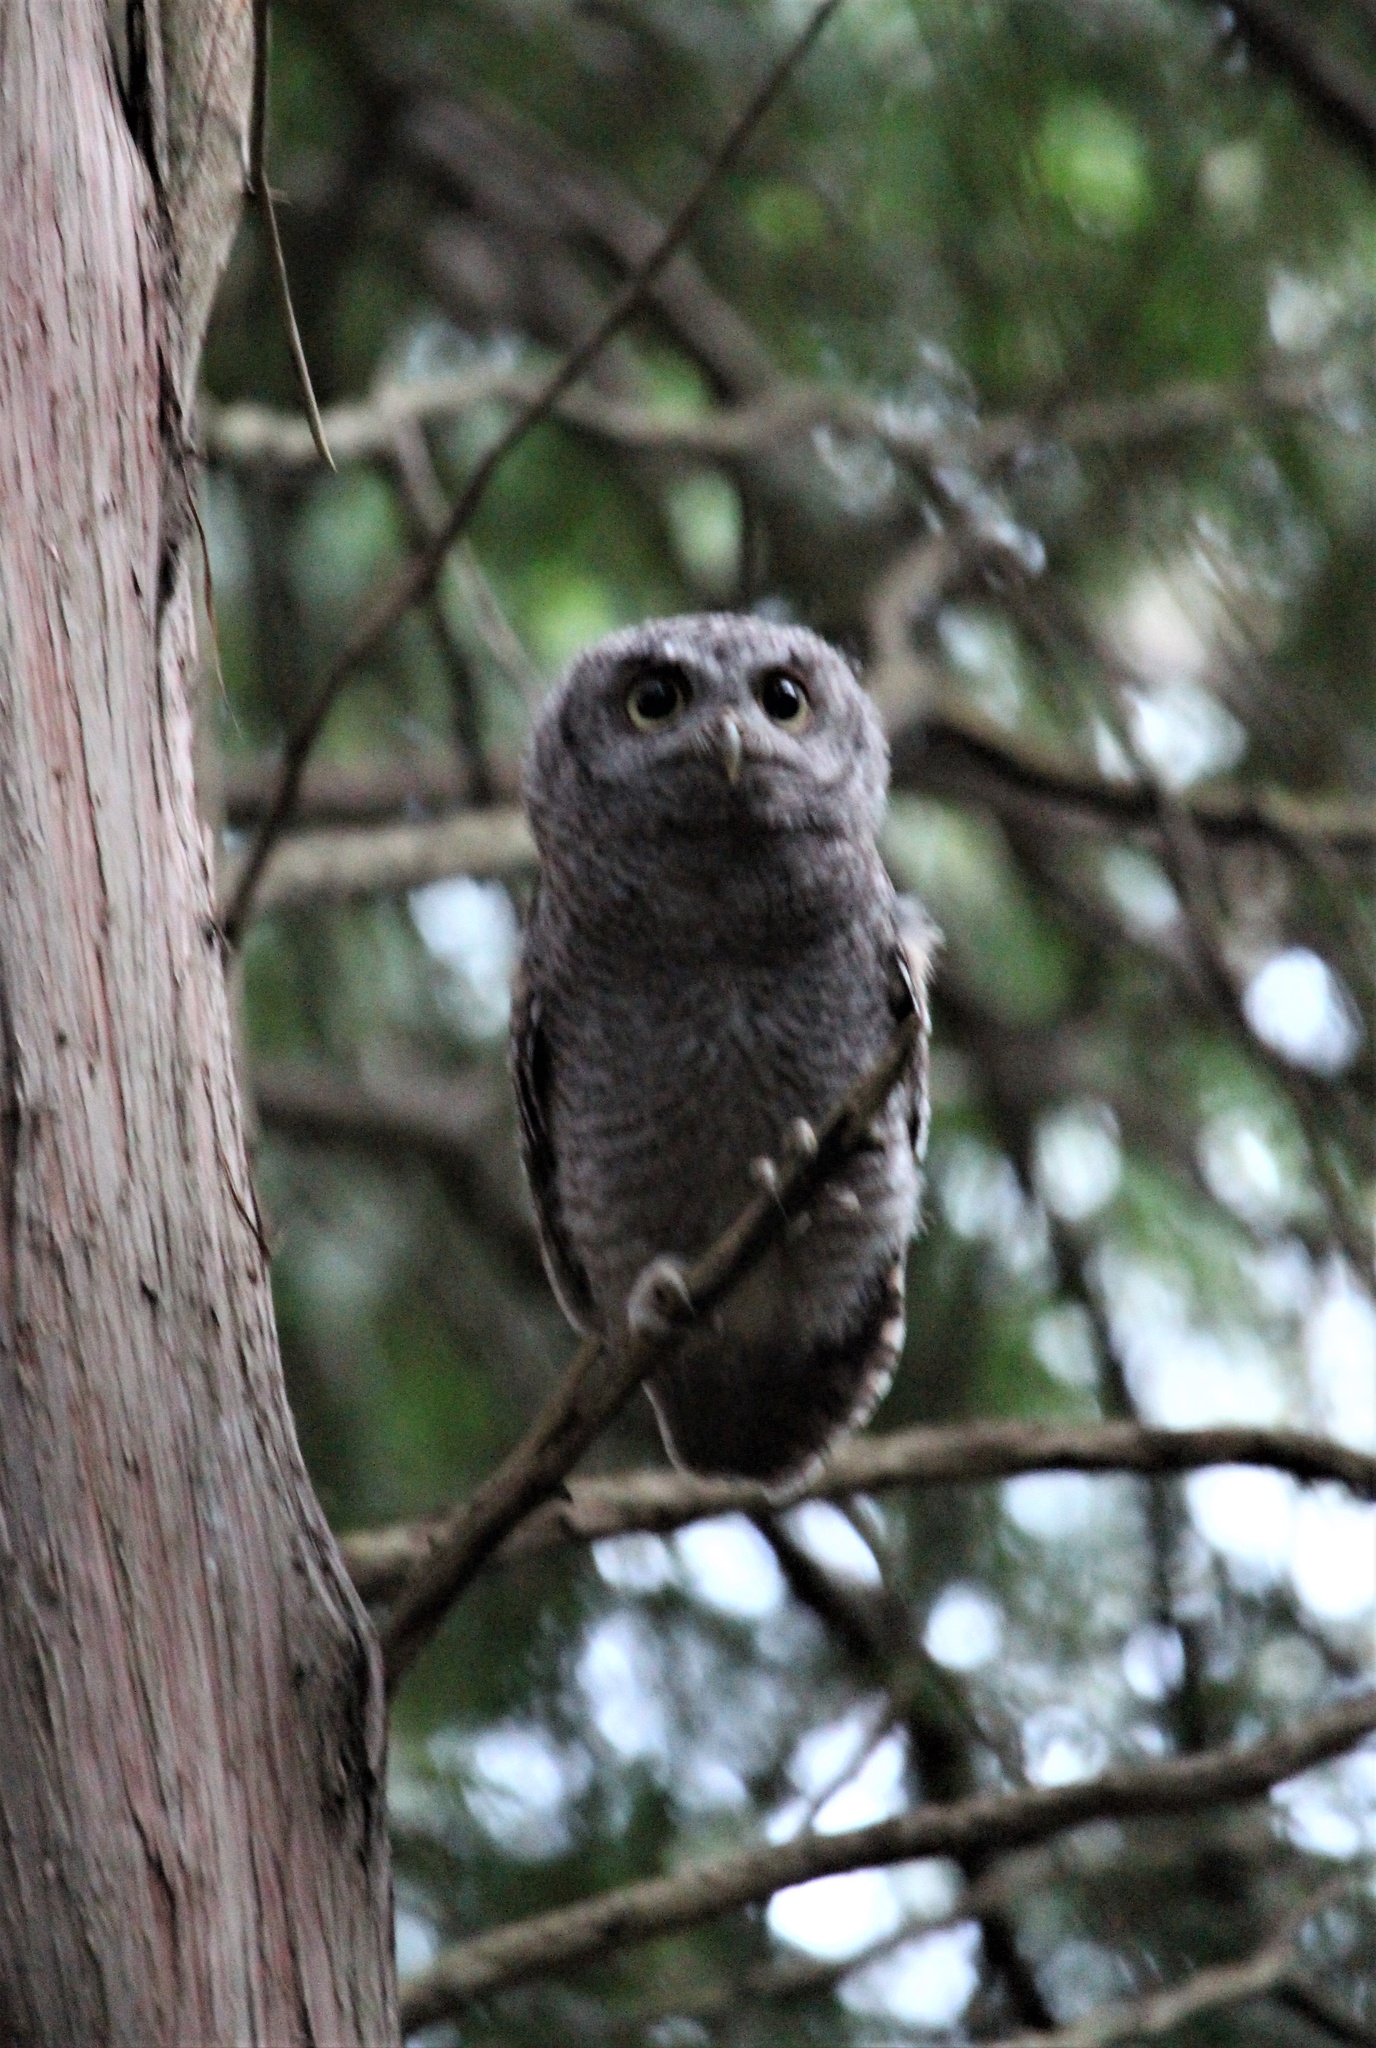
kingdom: Animalia
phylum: Chordata
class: Aves
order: Strigiformes
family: Strigidae
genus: Megascops
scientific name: Megascops asio
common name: Eastern screech-owl
